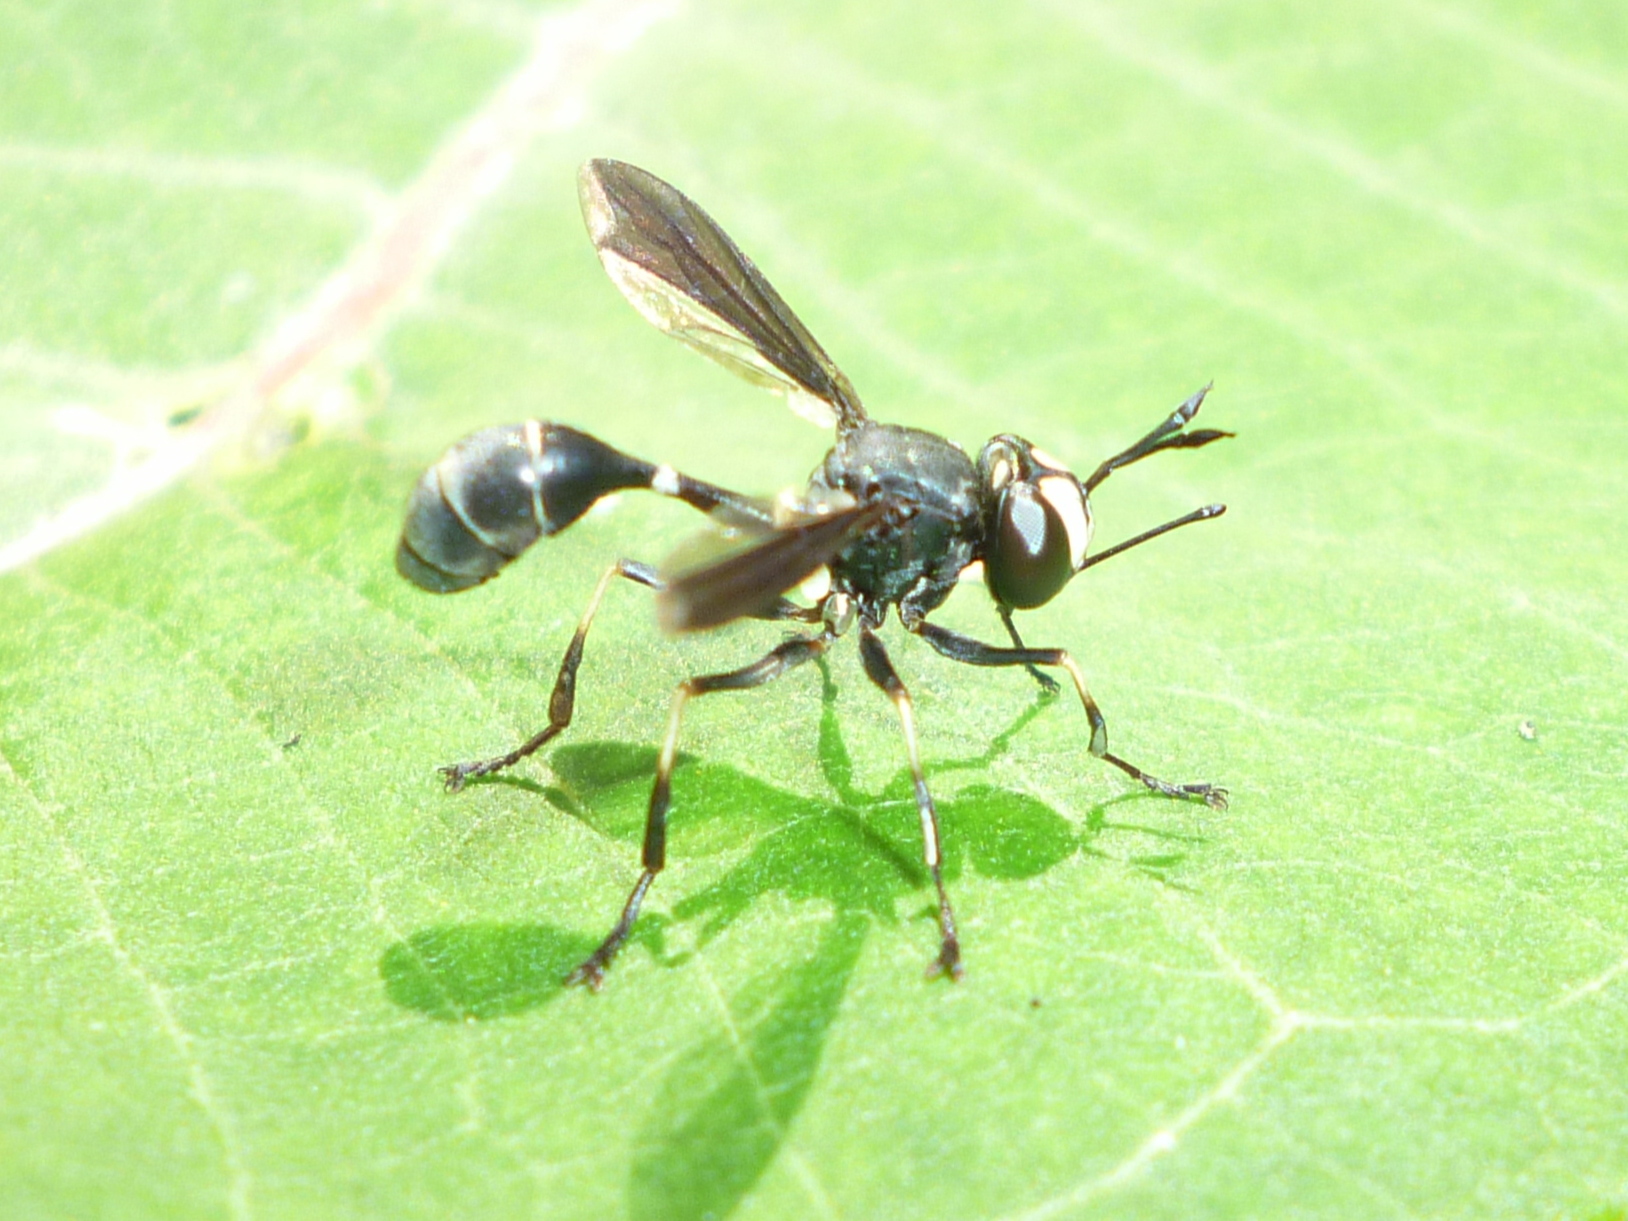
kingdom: Animalia
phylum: Arthropoda
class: Insecta
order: Diptera
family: Conopidae
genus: Physocephala
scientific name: Physocephala tibialis
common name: Common eastern physocephala
